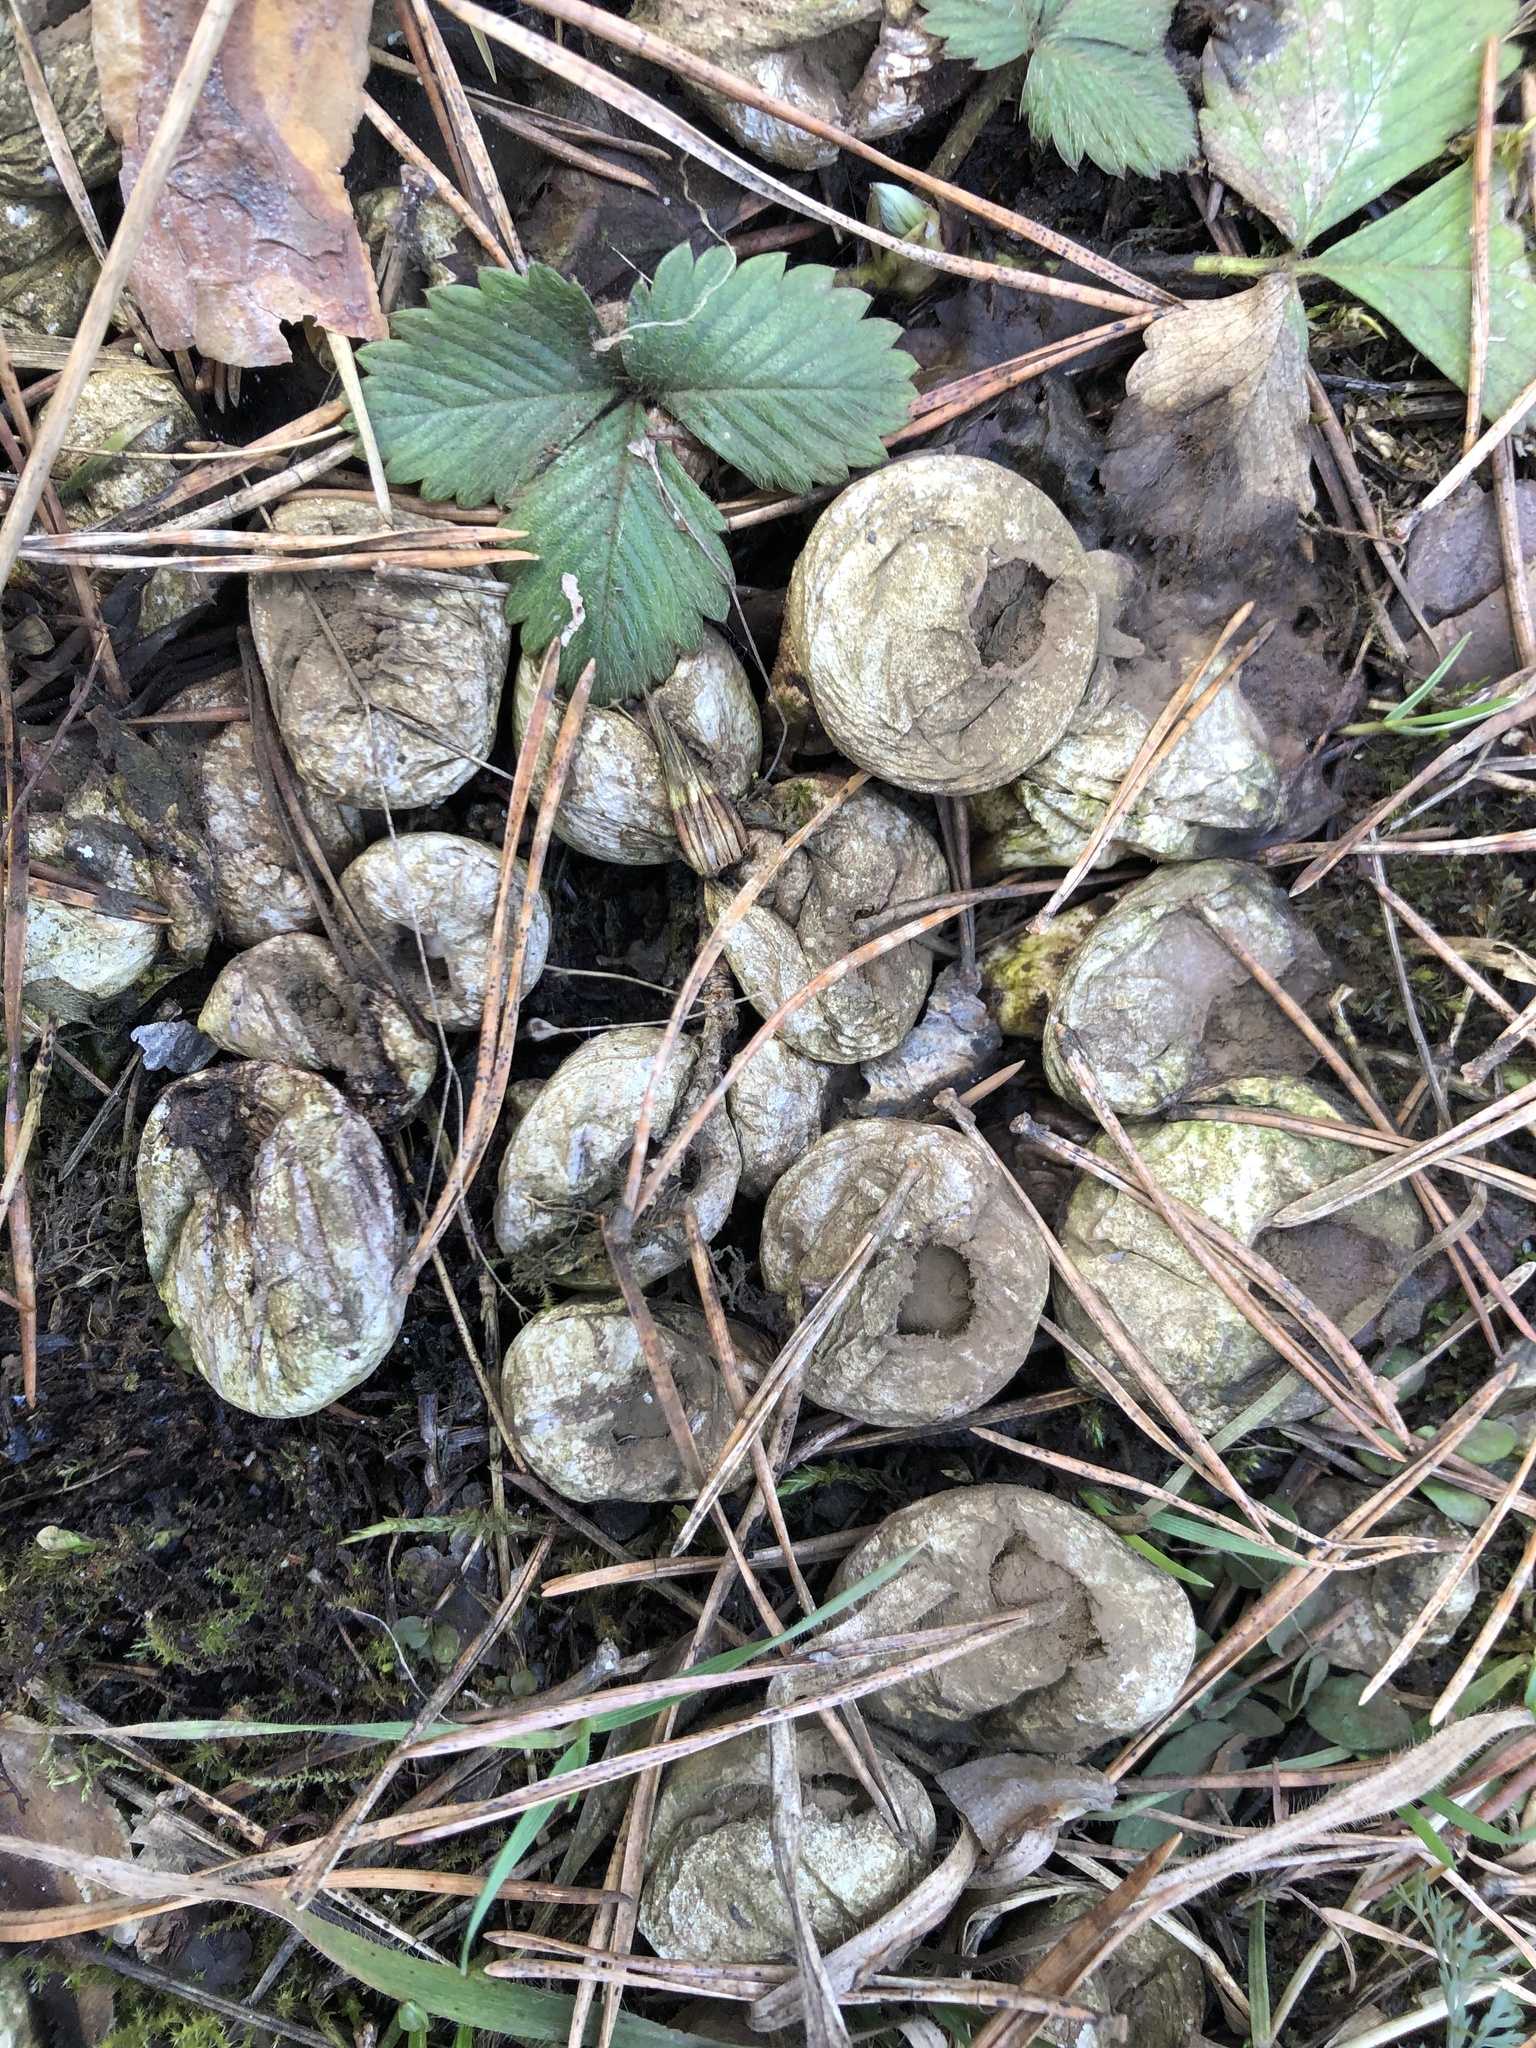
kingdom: Fungi
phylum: Basidiomycota
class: Agaricomycetes
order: Agaricales
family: Lycoperdaceae
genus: Apioperdon
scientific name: Apioperdon pyriforme
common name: Pear-shaped puffball
